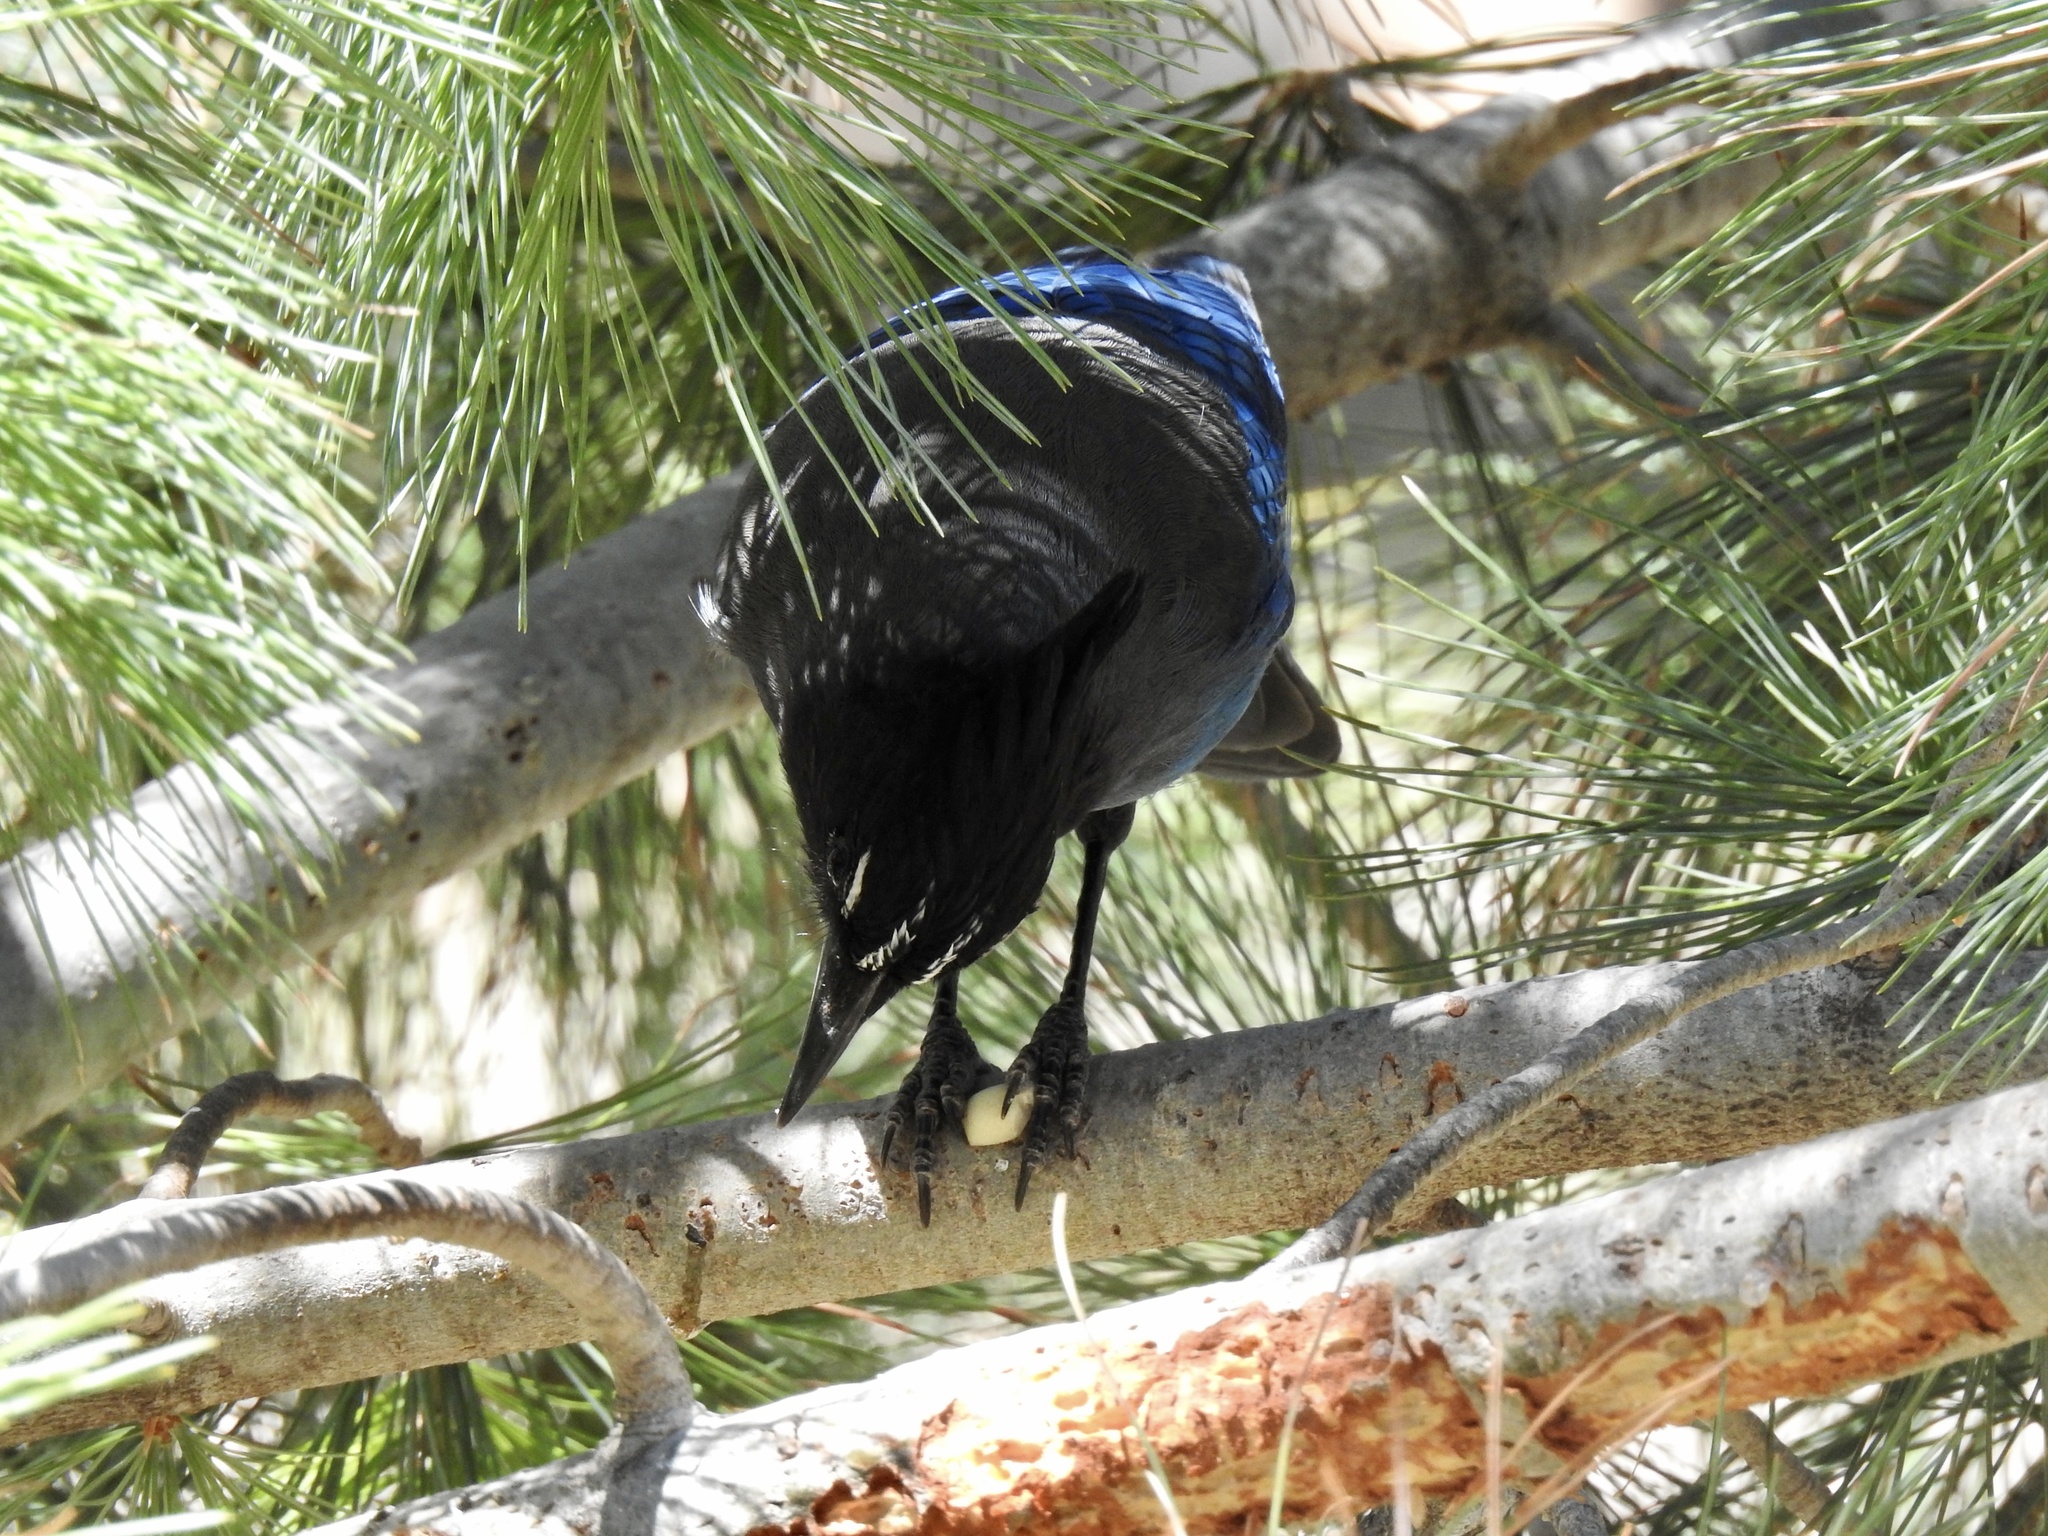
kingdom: Animalia
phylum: Chordata
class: Aves
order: Passeriformes
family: Corvidae
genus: Cyanocitta
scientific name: Cyanocitta stelleri
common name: Steller's jay
